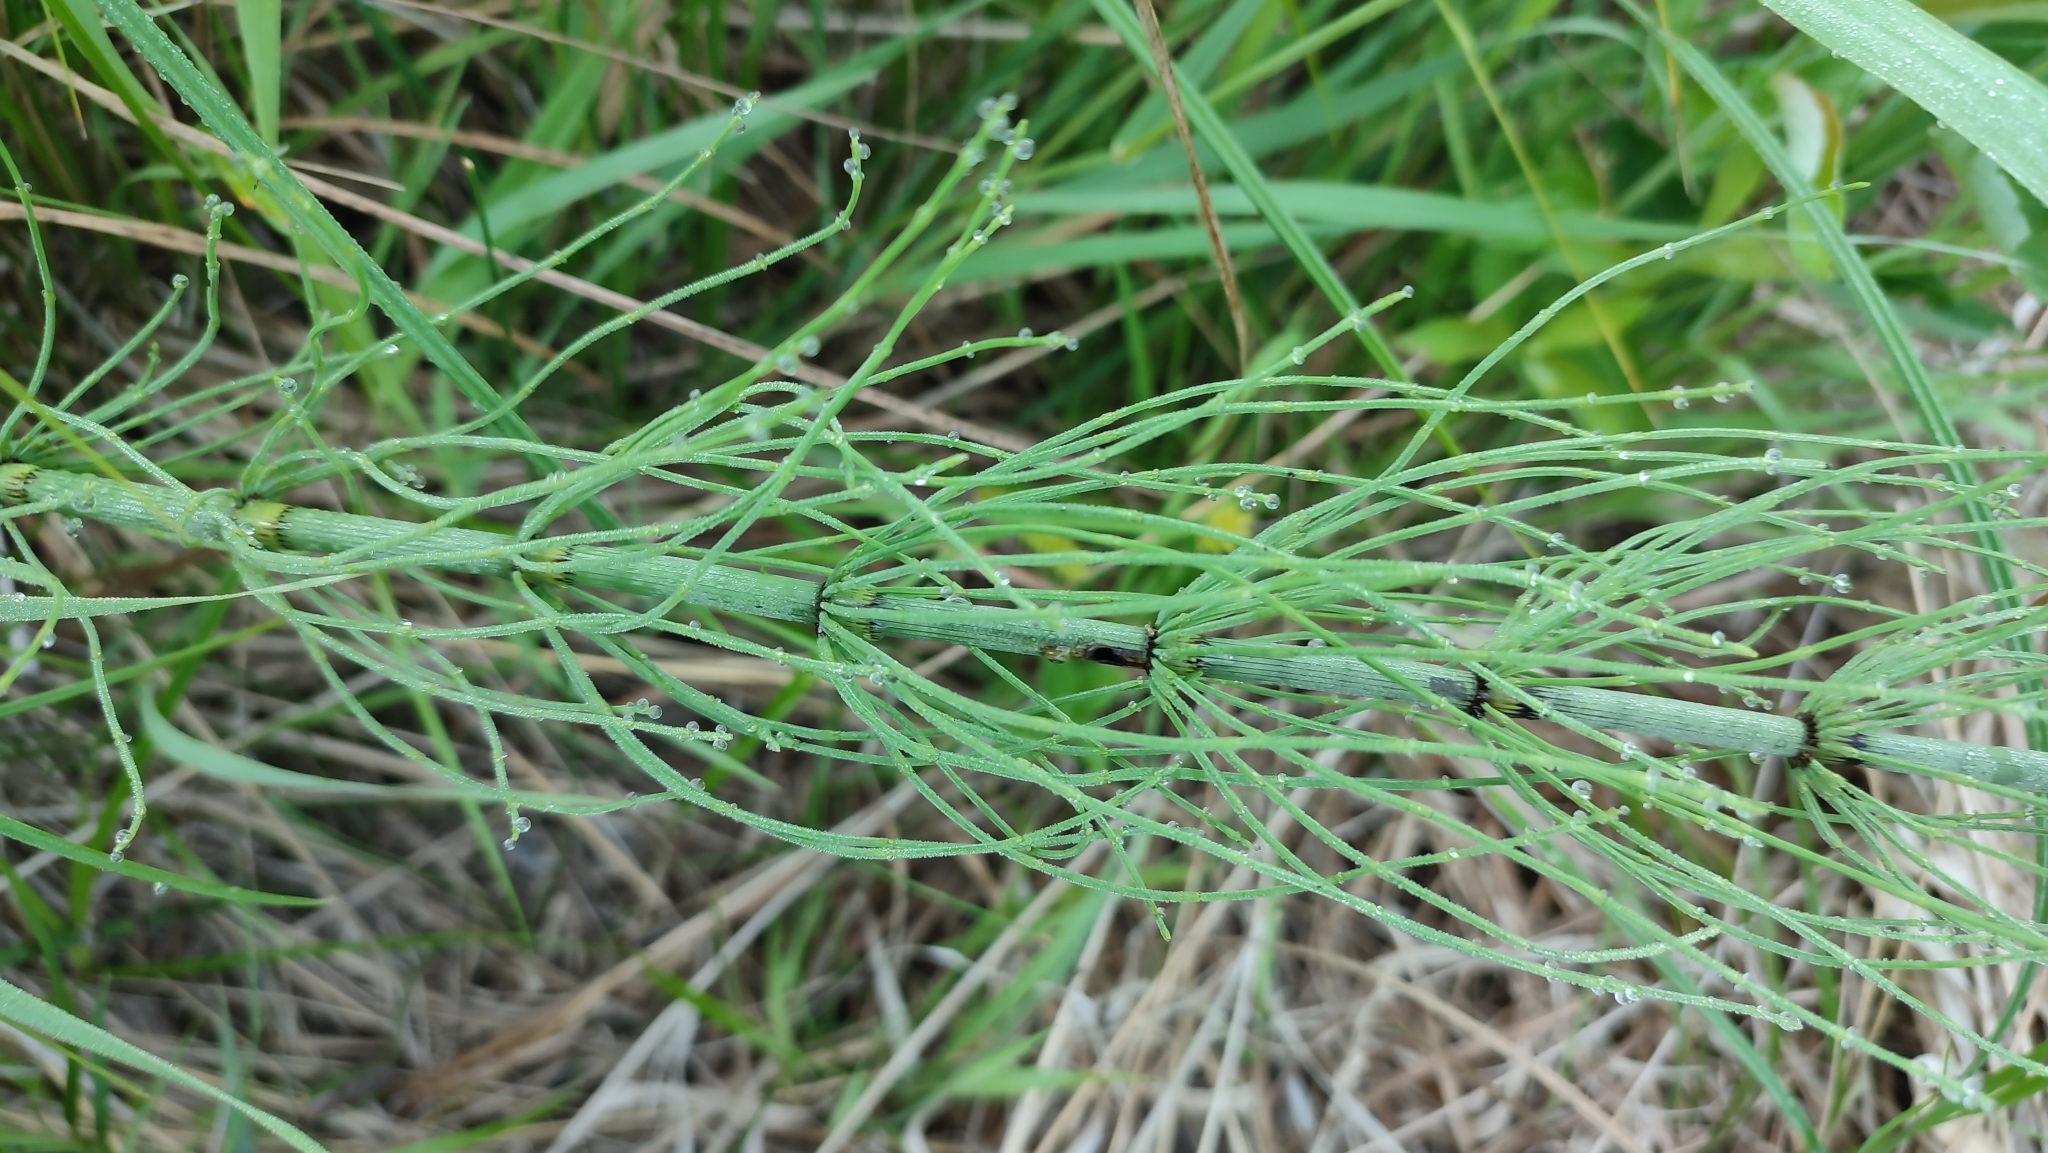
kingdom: Plantae
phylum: Tracheophyta
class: Polypodiopsida
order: Equisetales
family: Equisetaceae
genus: Equisetum
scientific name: Equisetum fluviatile
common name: Water horsetail
